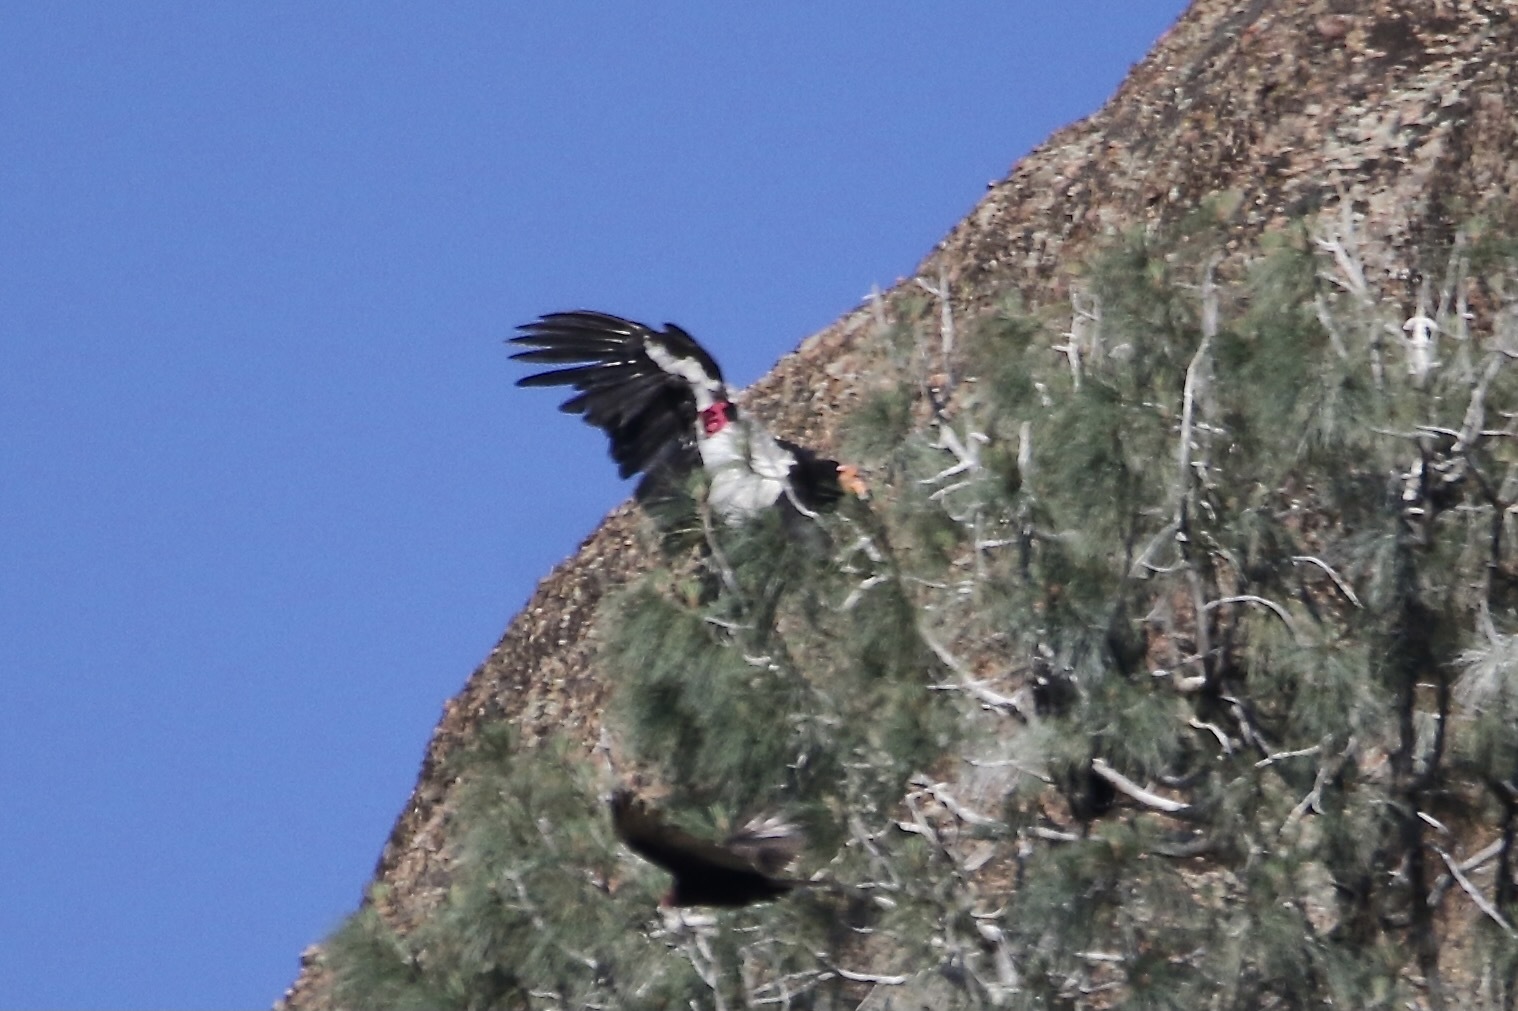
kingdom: Animalia
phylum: Chordata
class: Aves
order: Accipitriformes
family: Cathartidae
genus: Gymnogyps
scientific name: Gymnogyps californianus
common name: California condor
